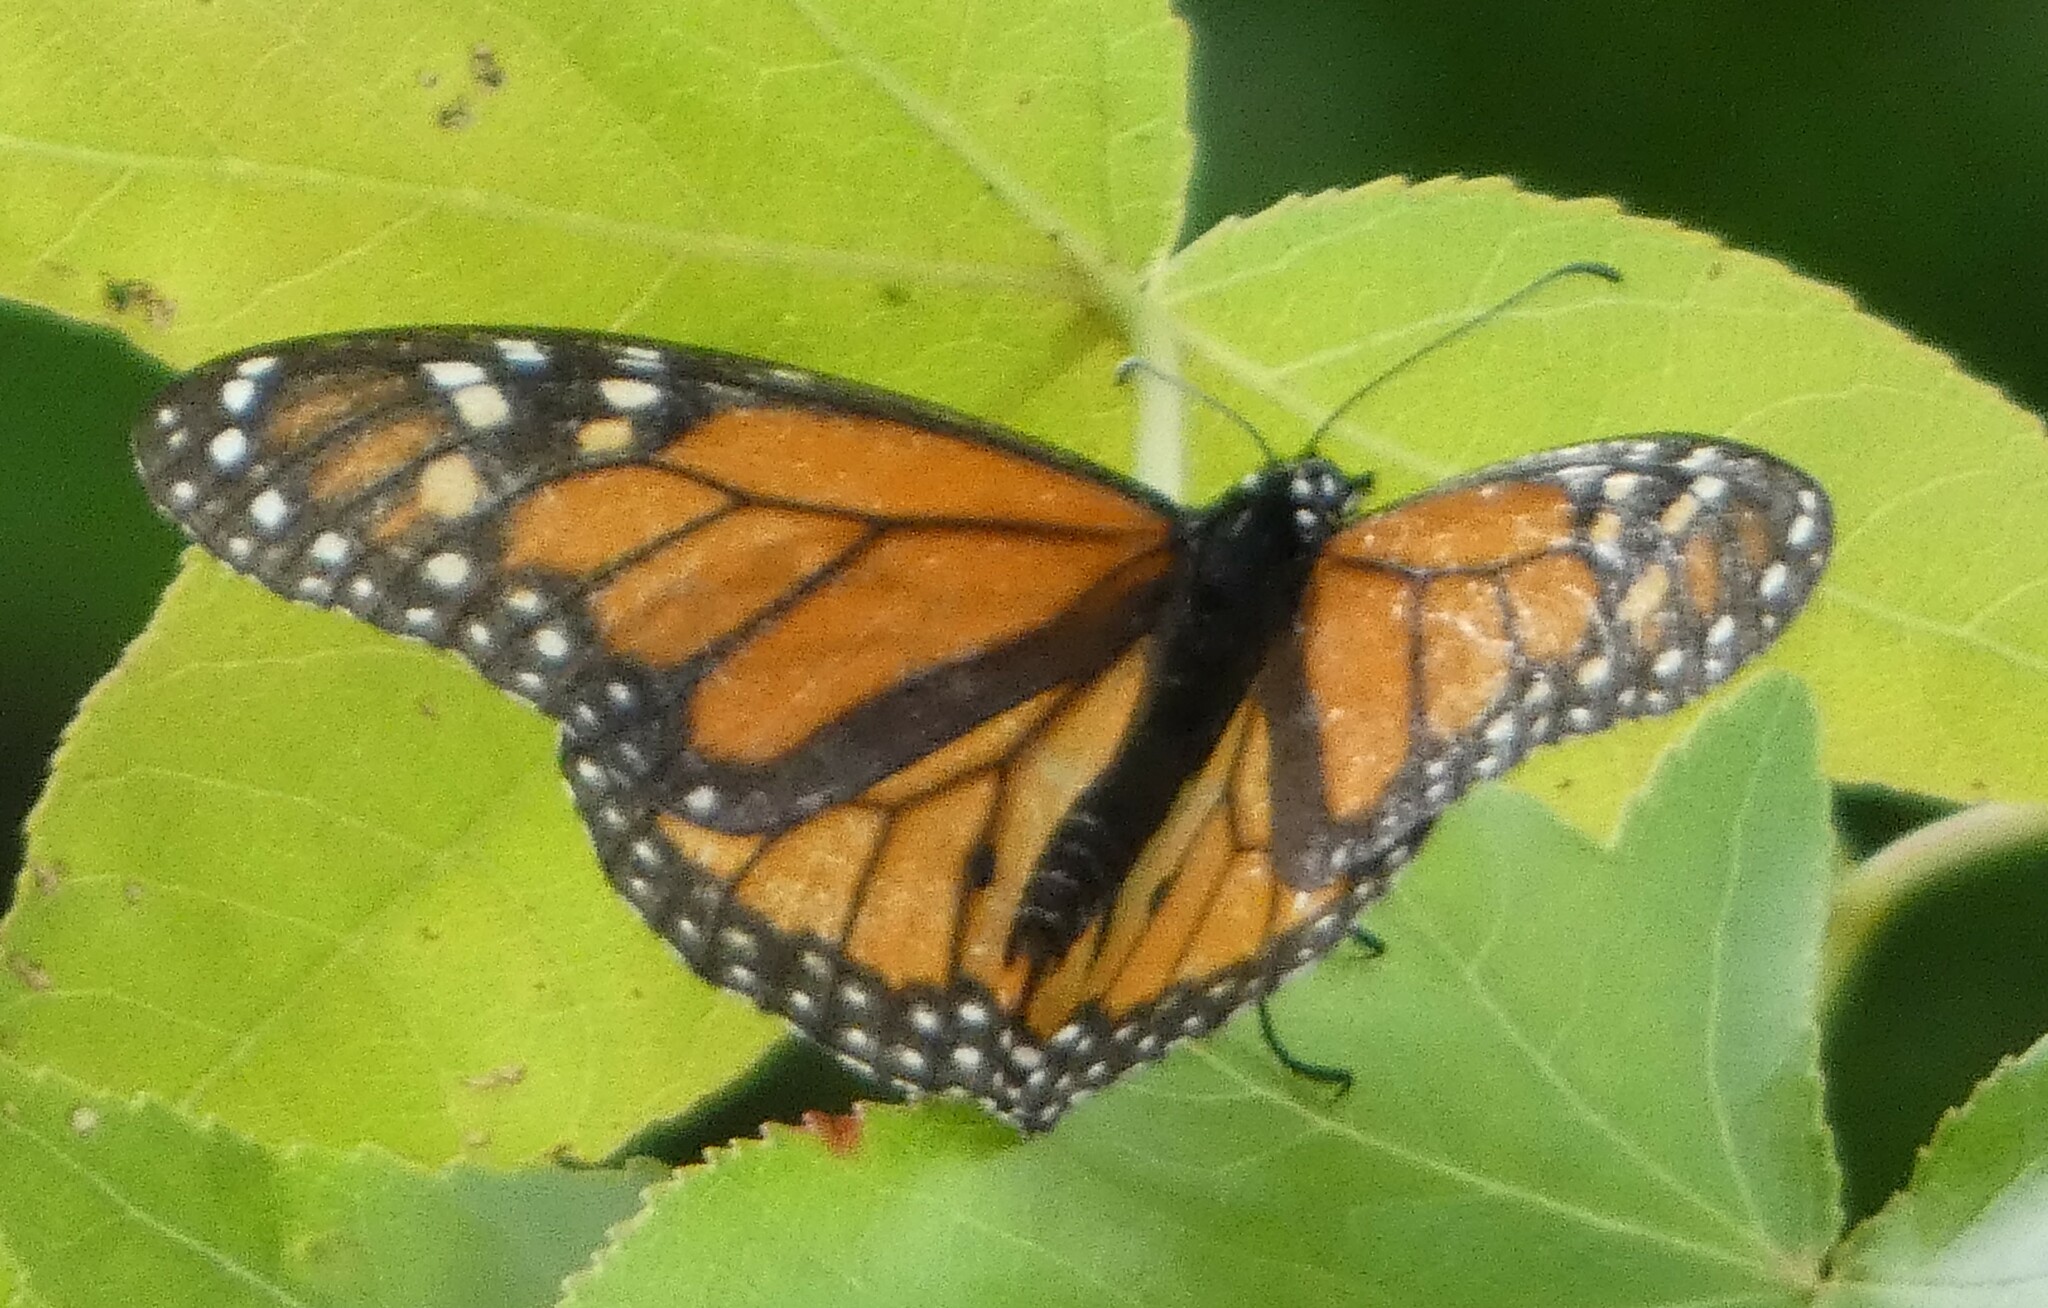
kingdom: Animalia
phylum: Arthropoda
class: Insecta
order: Lepidoptera
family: Nymphalidae
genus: Danaus
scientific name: Danaus plexippus
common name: Monarch
